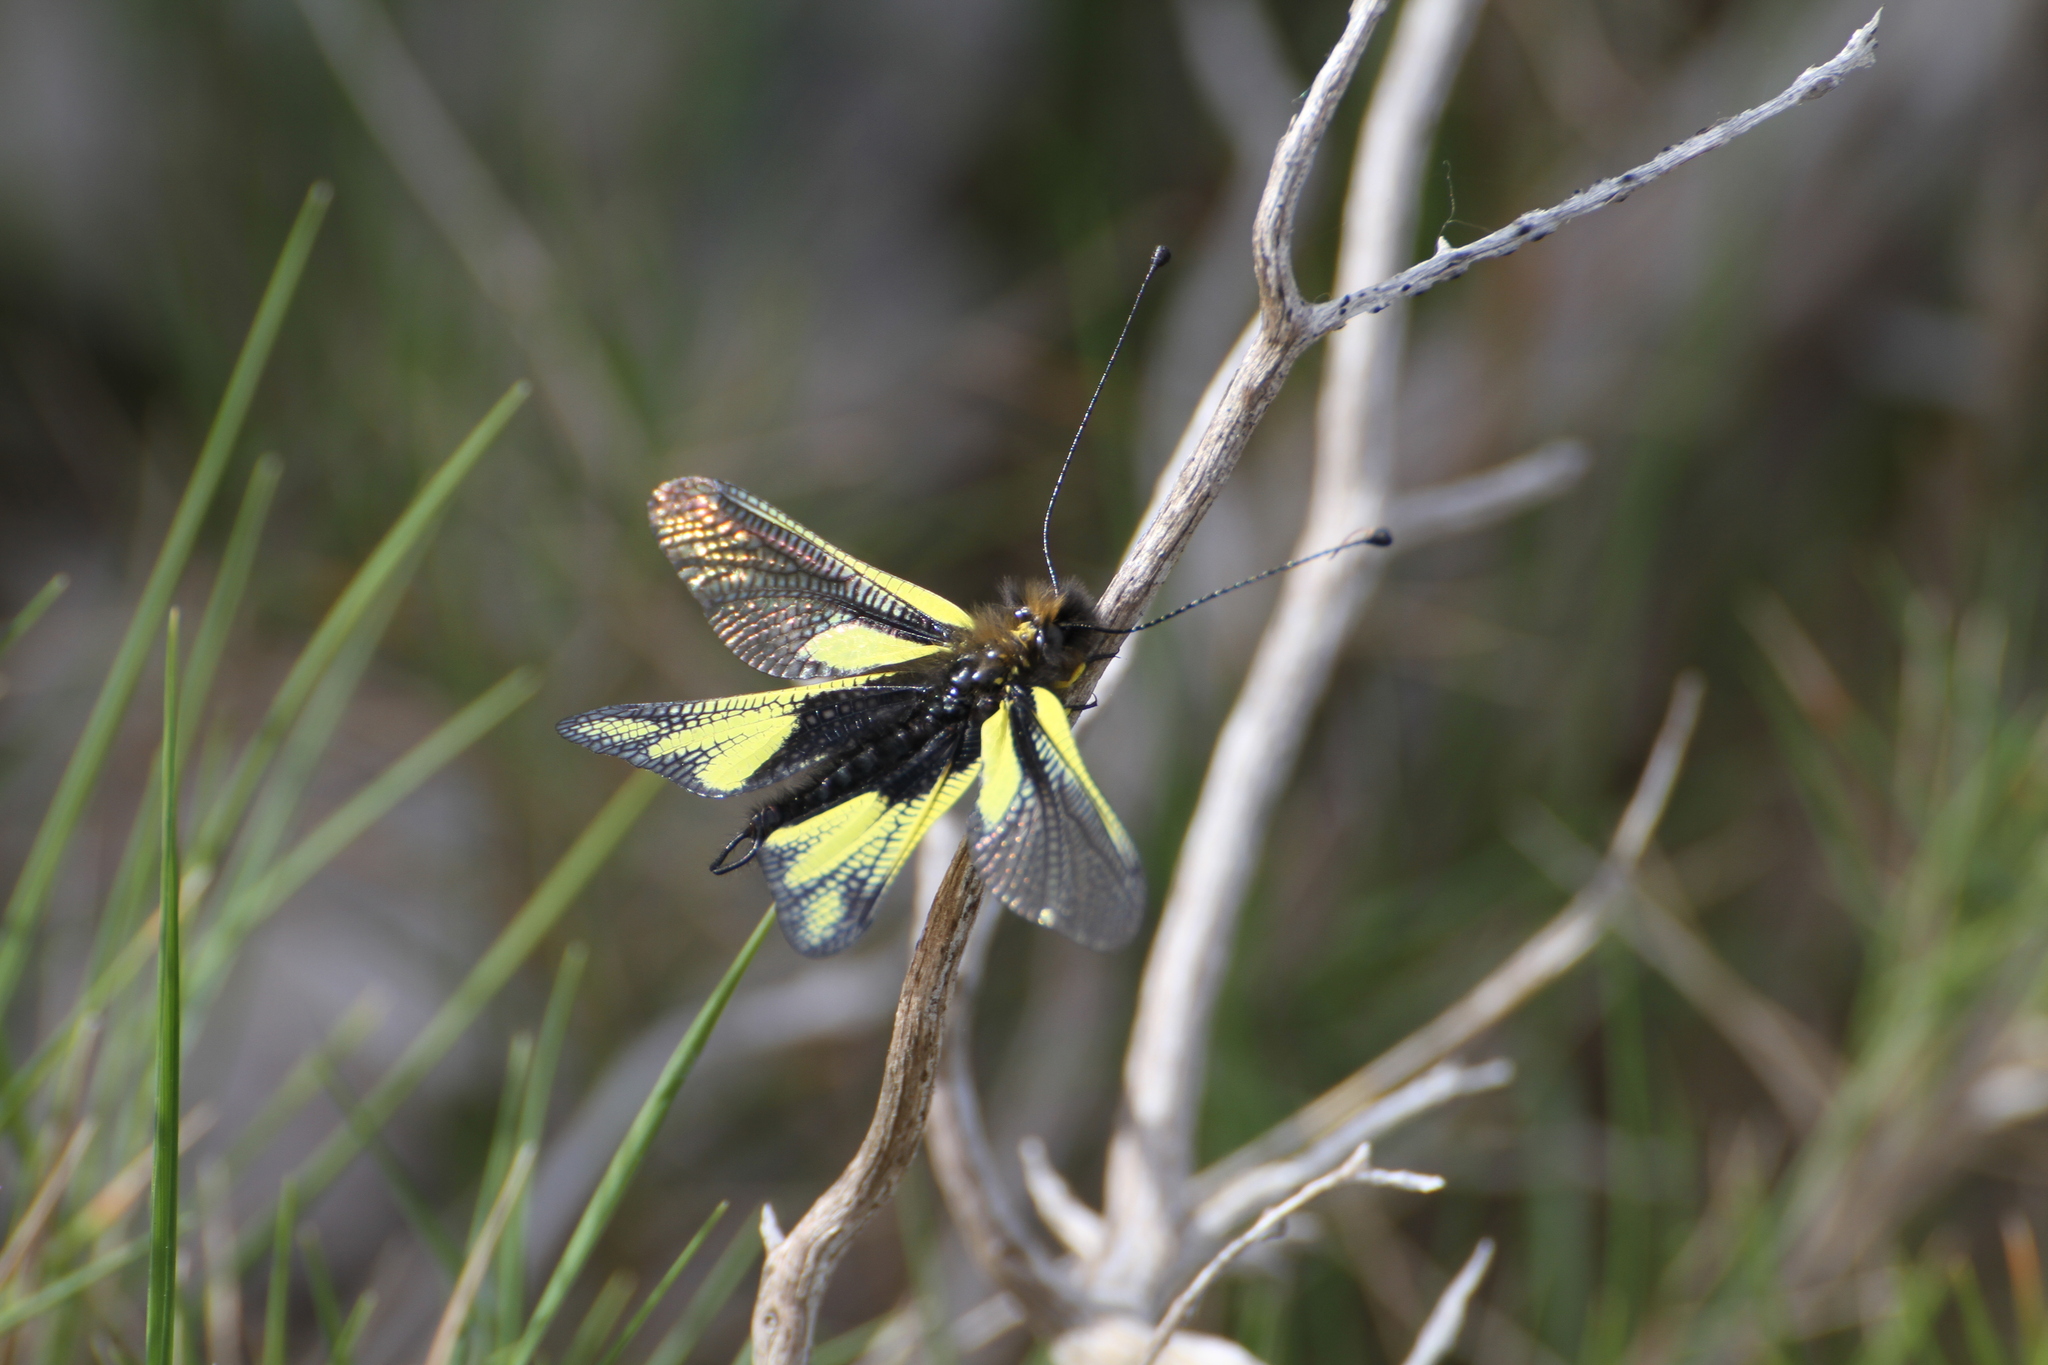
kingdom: Animalia
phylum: Arthropoda
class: Insecta
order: Neuroptera
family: Ascalaphidae
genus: Libelloides
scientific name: Libelloides coccajus
